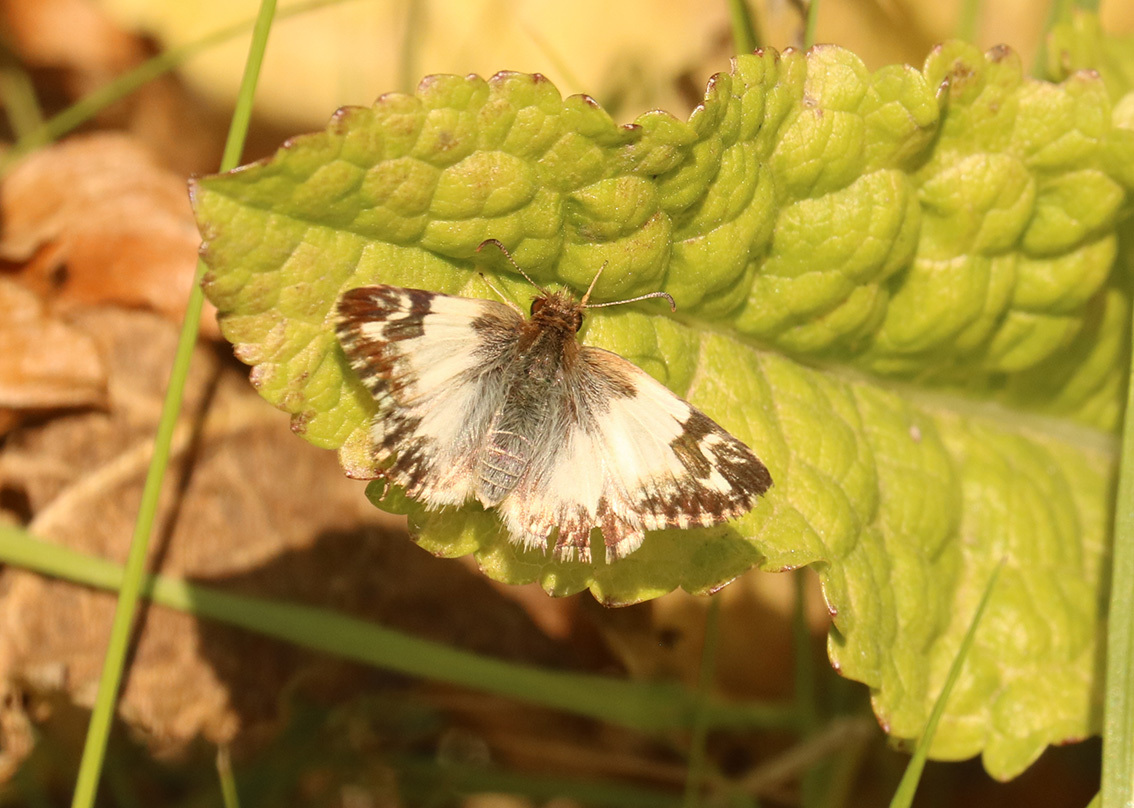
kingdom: Animalia
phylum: Arthropoda
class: Insecta
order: Lepidoptera
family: Hesperiidae
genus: Heliopetes
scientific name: Heliopetes omrina
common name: Stained white-skipper
